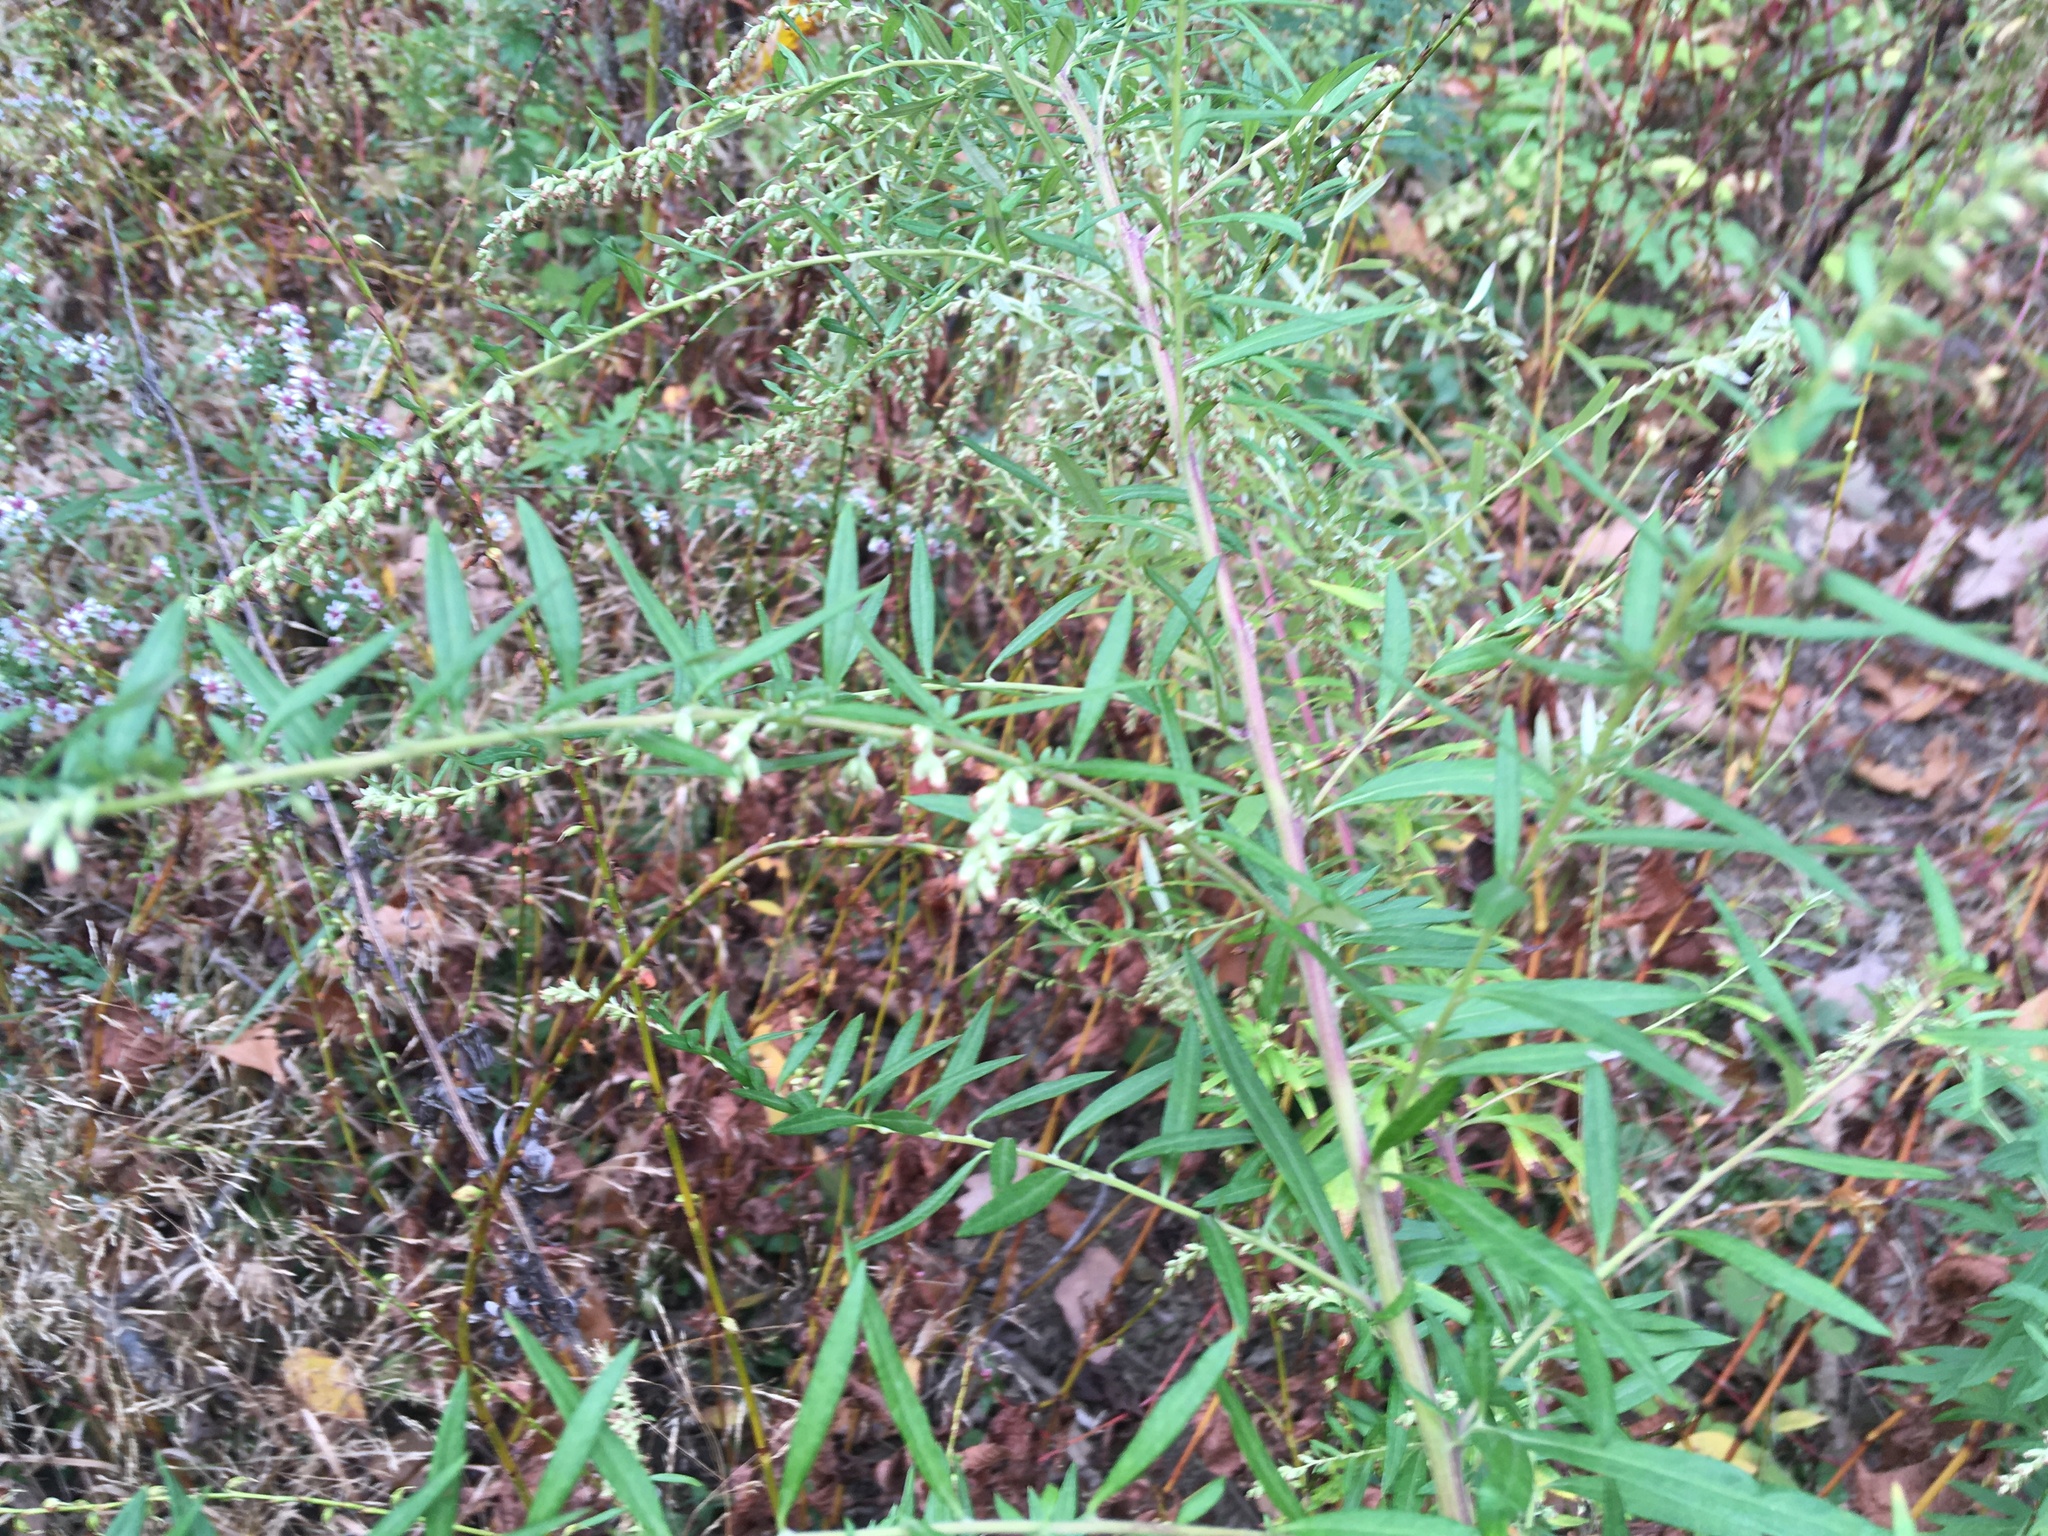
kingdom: Plantae
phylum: Tracheophyta
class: Magnoliopsida
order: Asterales
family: Asteraceae
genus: Artemisia
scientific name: Artemisia vulgaris
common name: Mugwort
